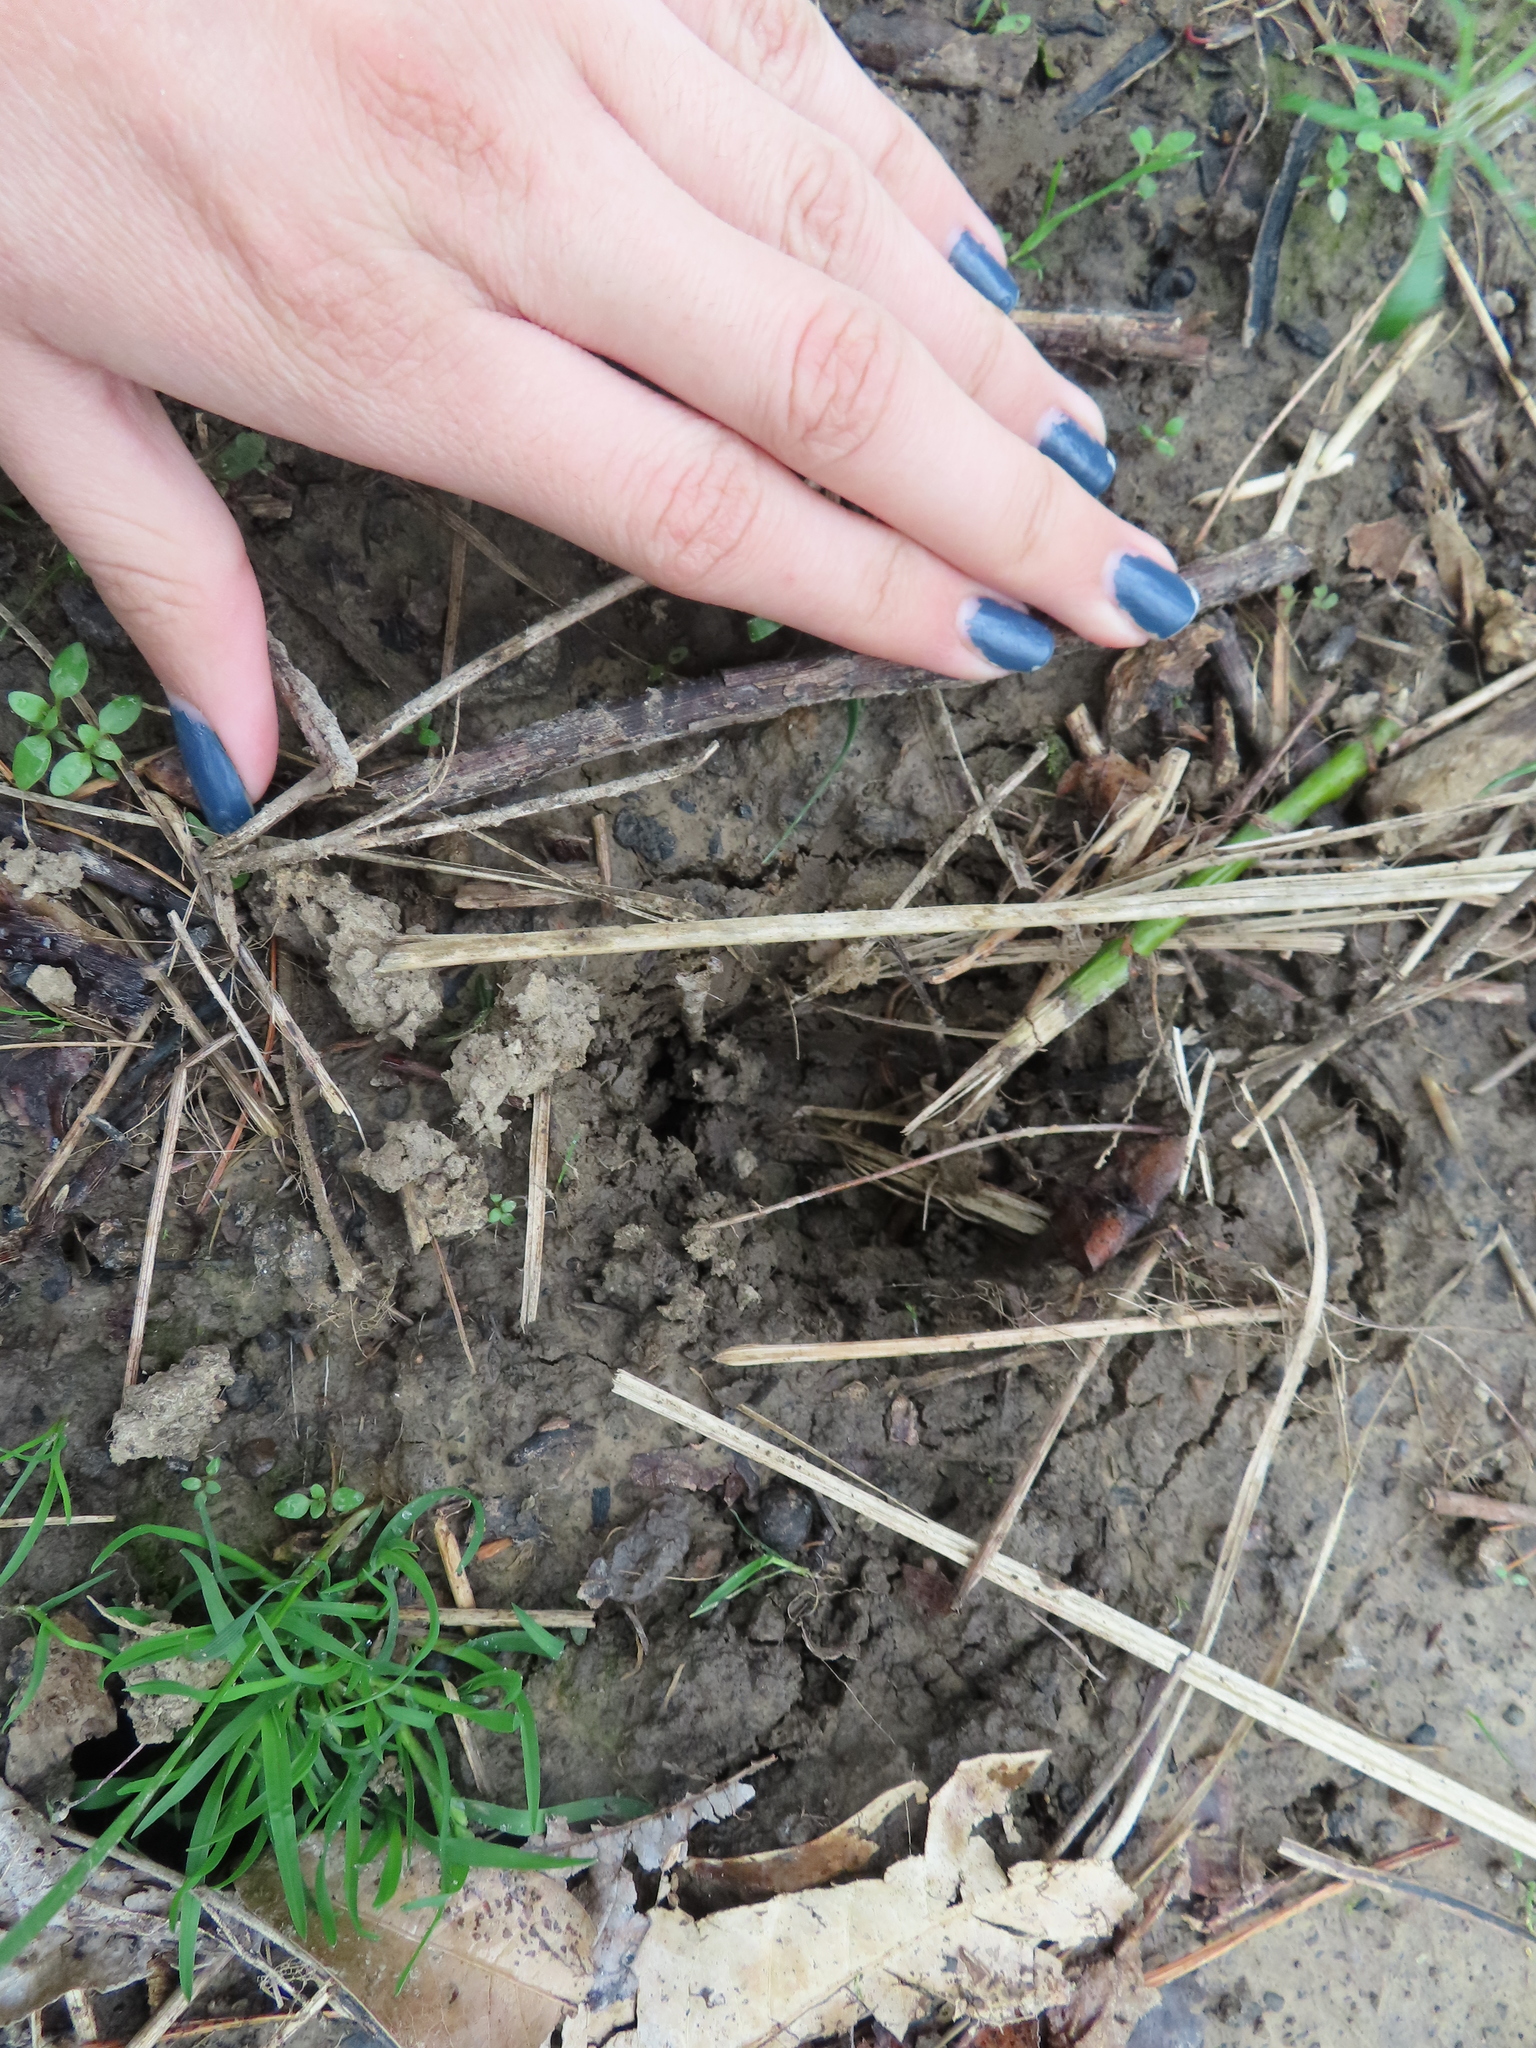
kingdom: Animalia
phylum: Chordata
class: Mammalia
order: Artiodactyla
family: Cervidae
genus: Odocoileus
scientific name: Odocoileus virginianus
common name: White-tailed deer
